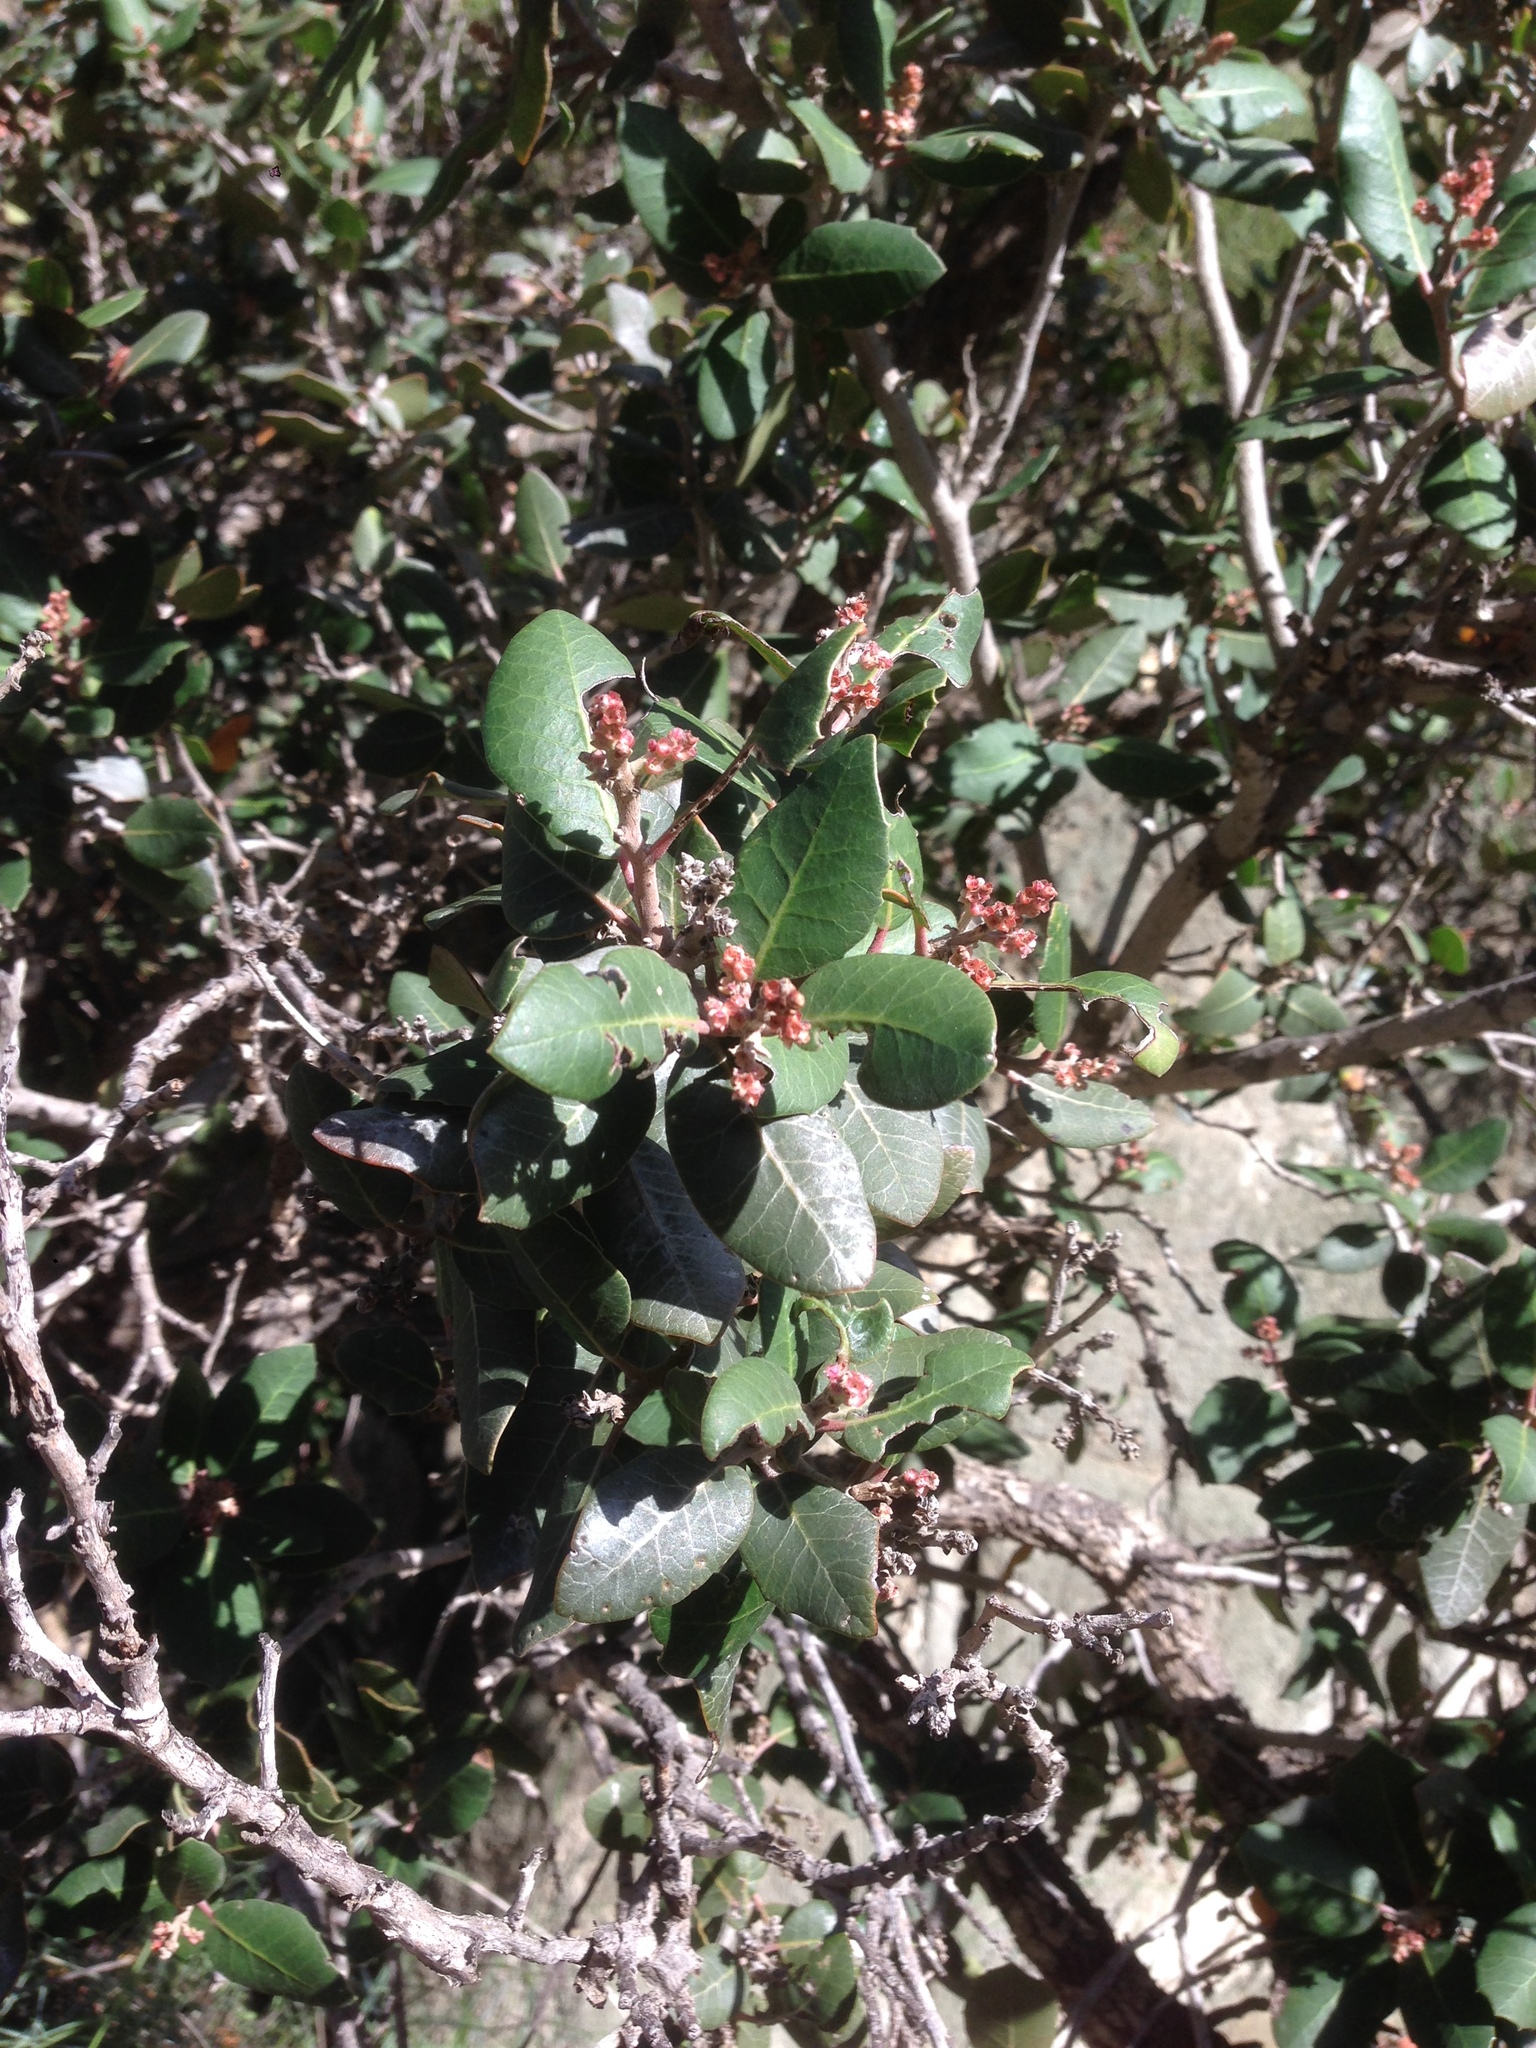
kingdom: Plantae
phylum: Tracheophyta
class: Magnoliopsida
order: Sapindales
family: Anacardiaceae
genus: Rhus
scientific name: Rhus integrifolia
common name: Lemonade sumac
